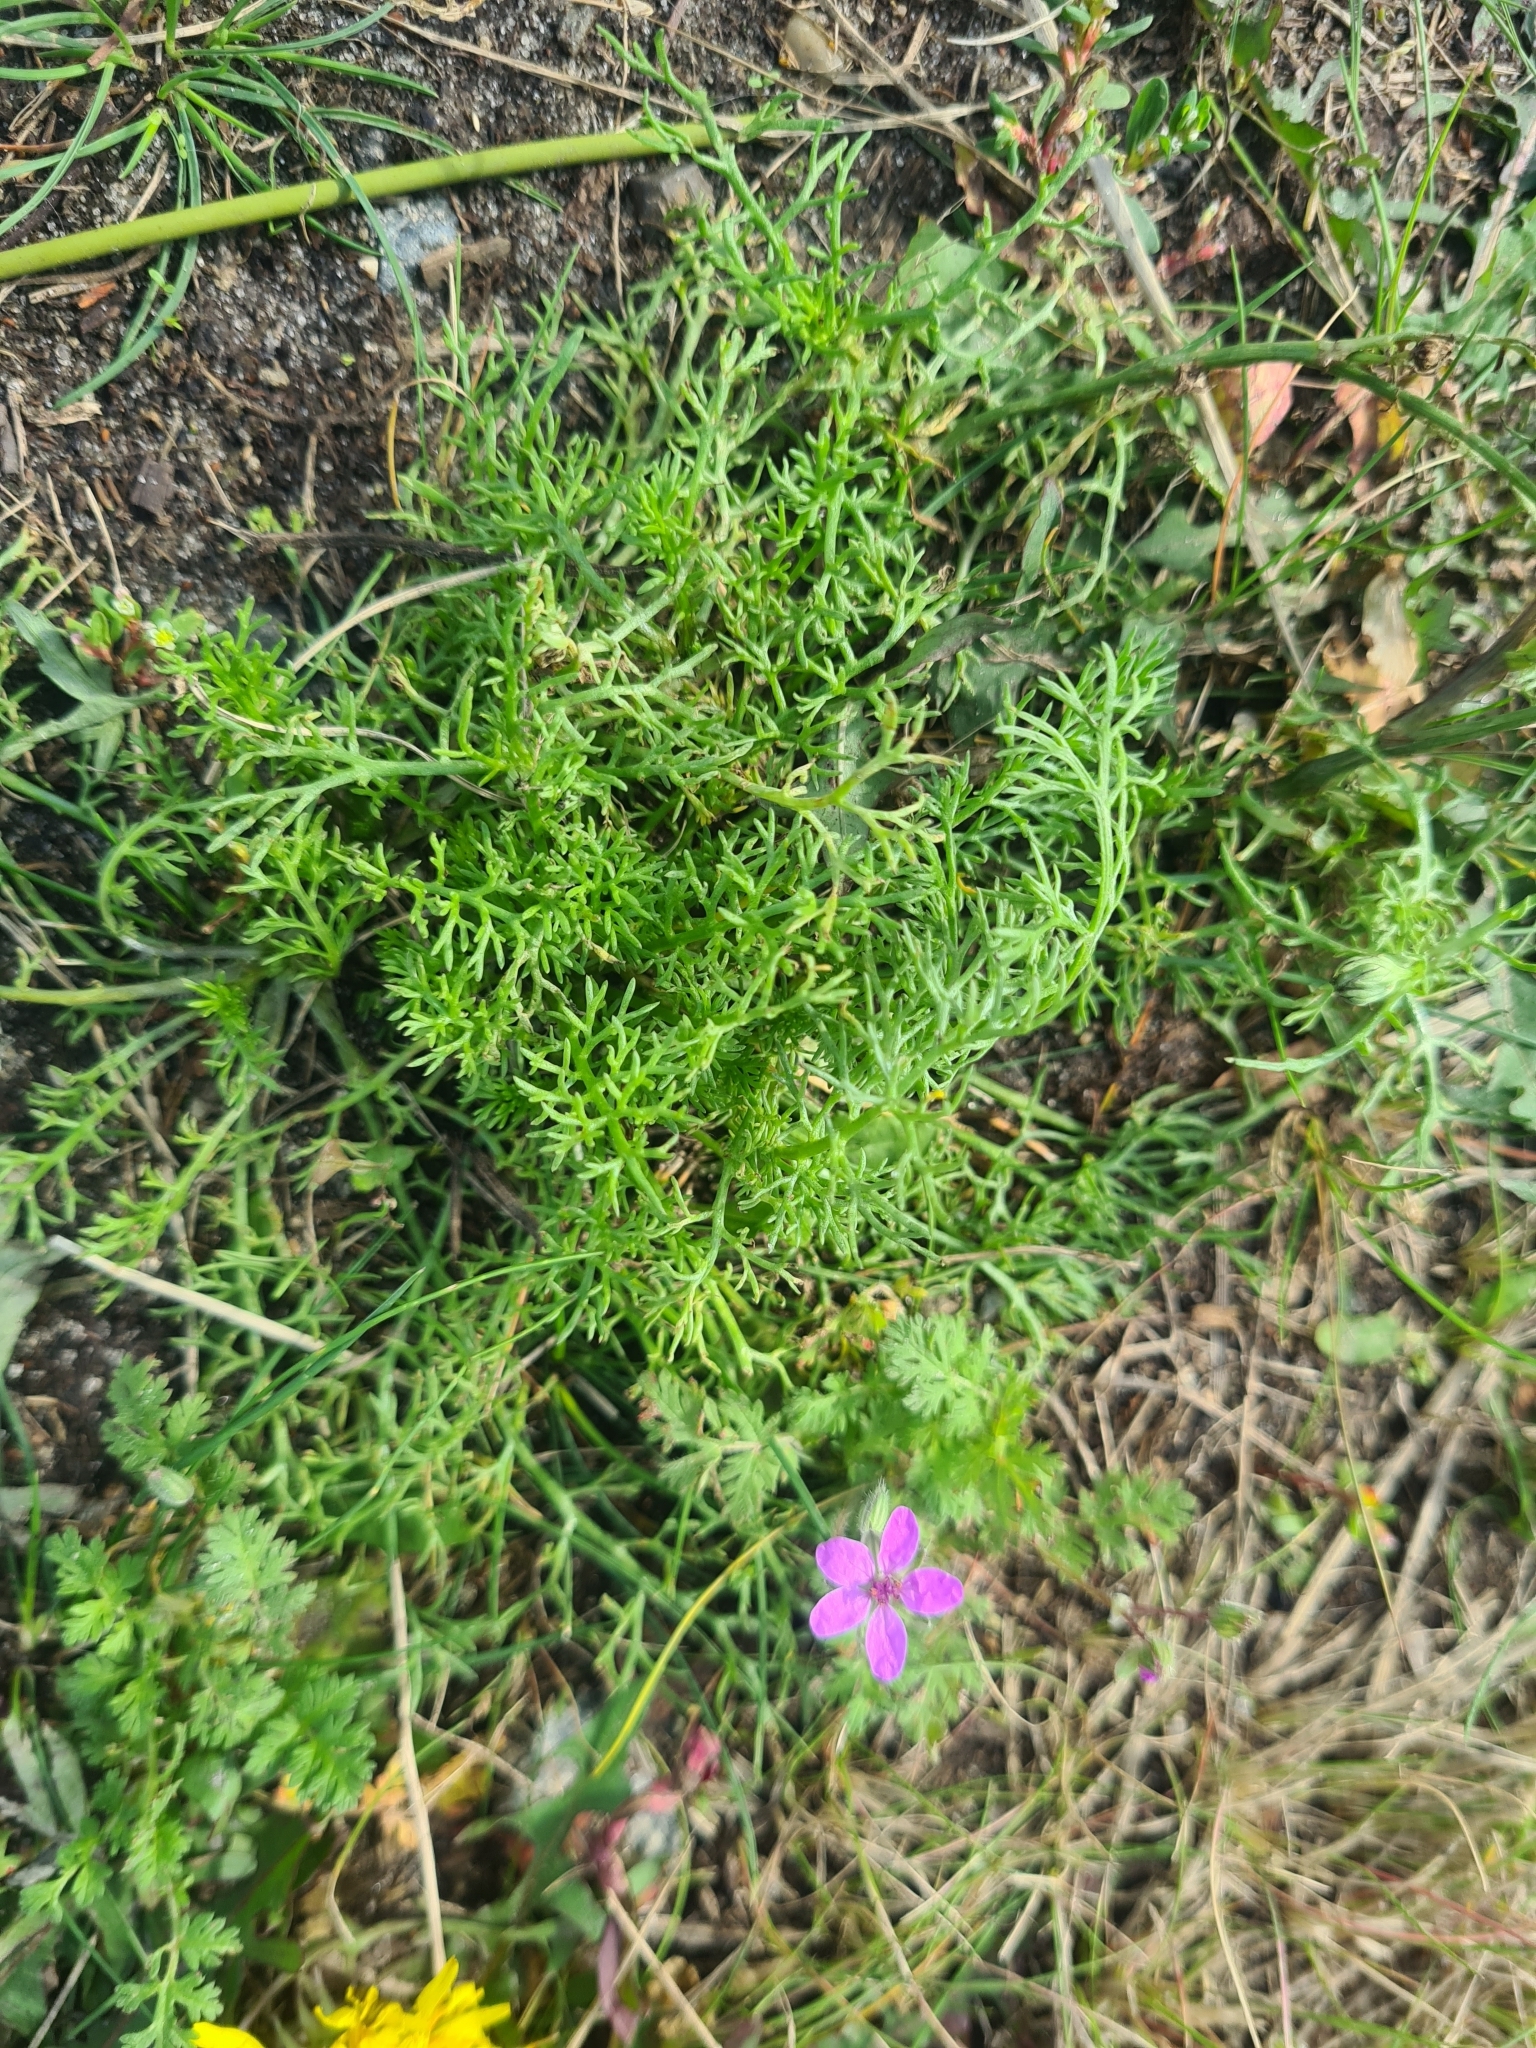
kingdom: Plantae
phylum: Tracheophyta
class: Magnoliopsida
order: Geraniales
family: Geraniaceae
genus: Erodium
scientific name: Erodium cicutarium
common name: Common stork's-bill
